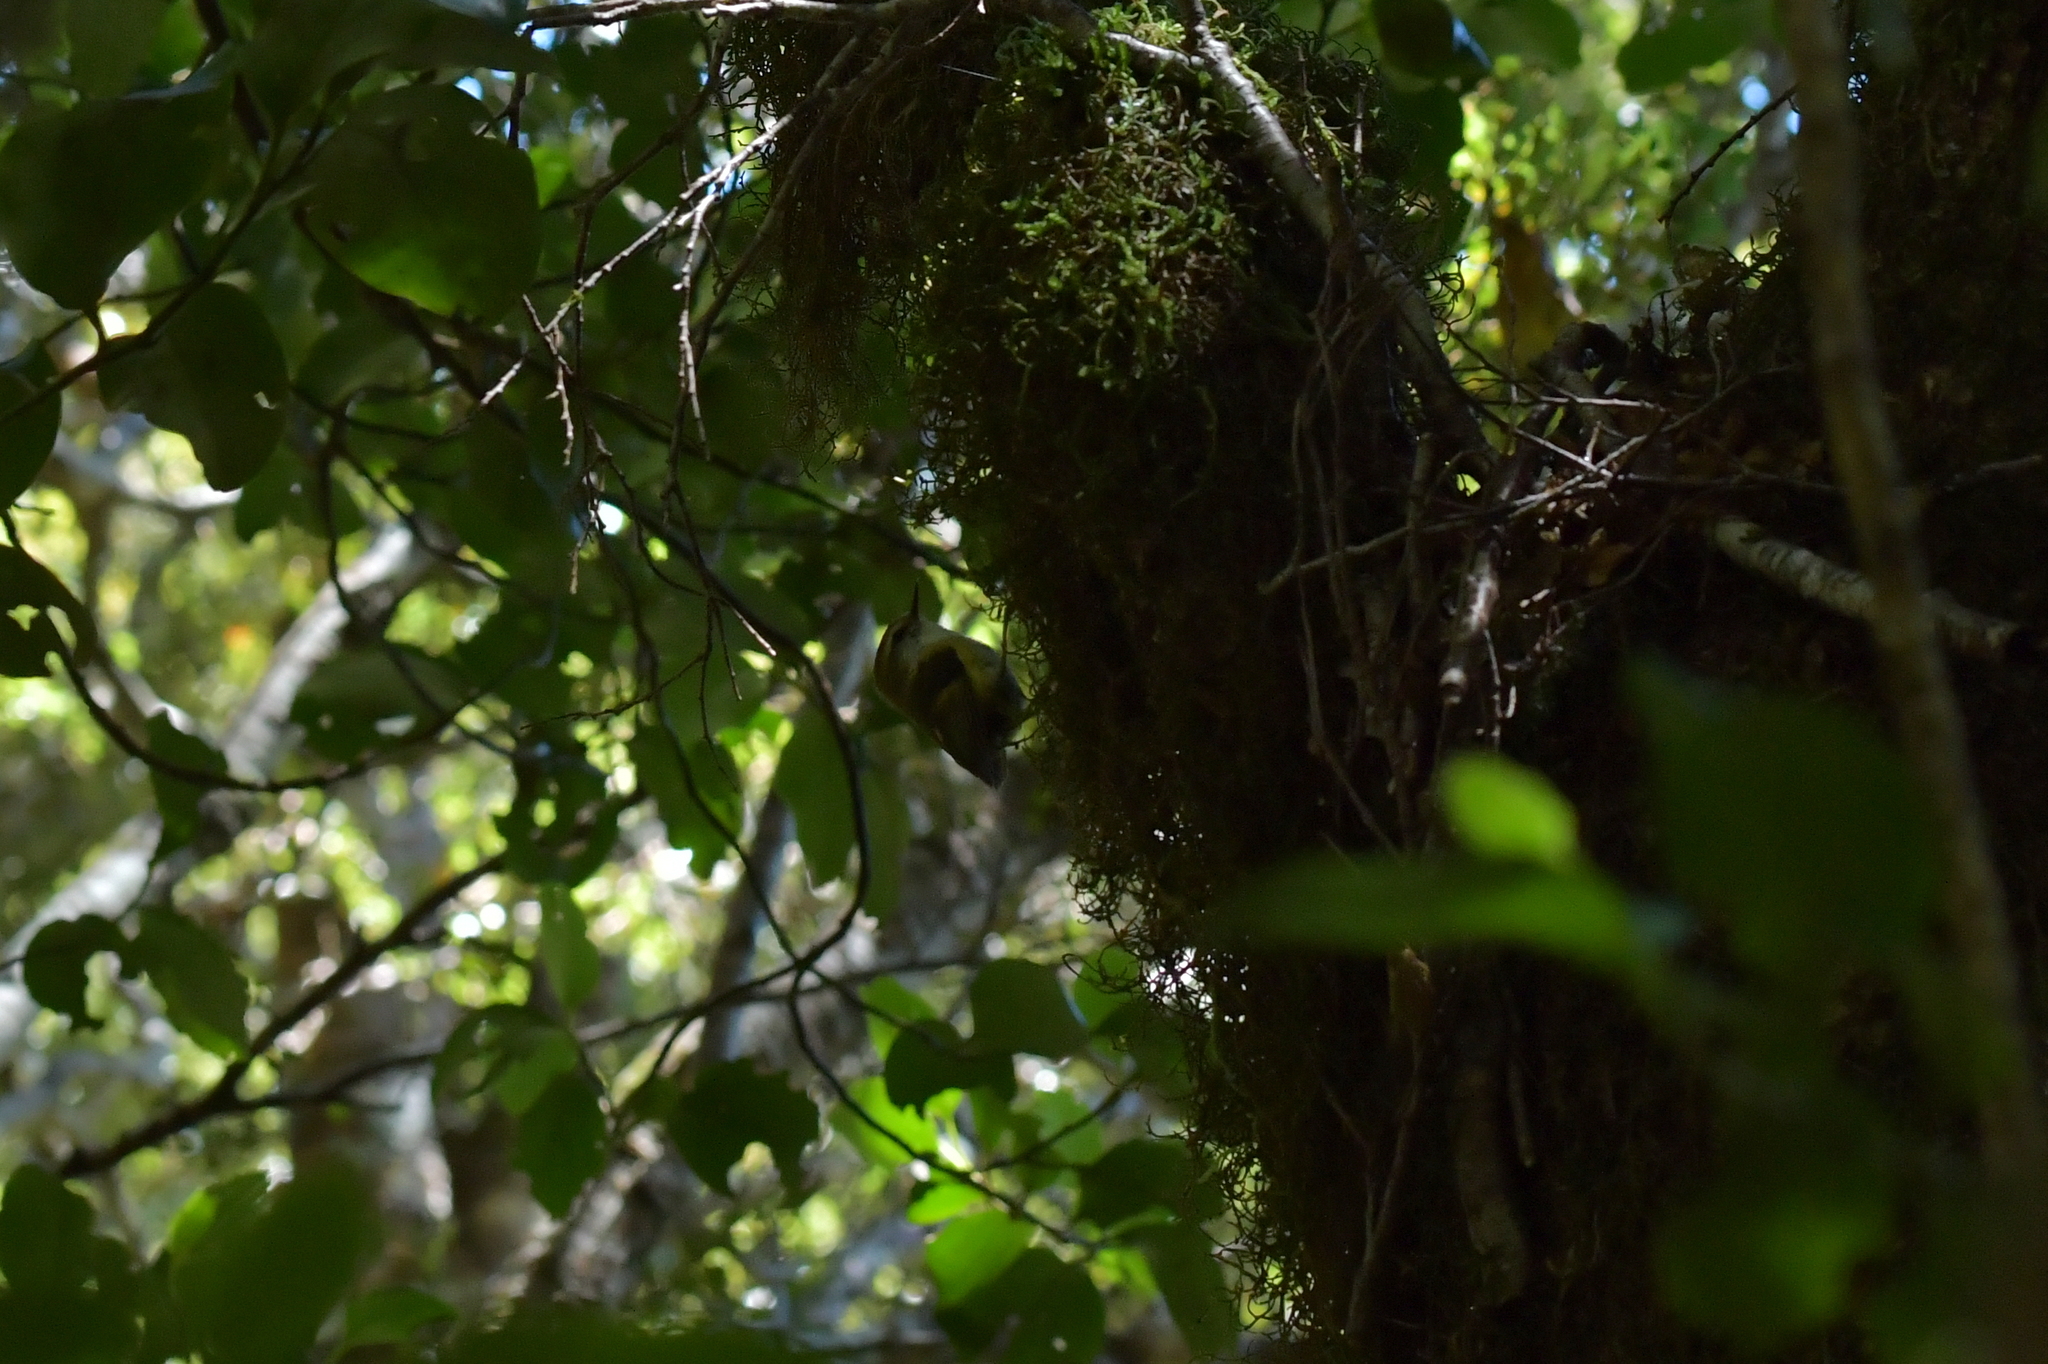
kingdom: Animalia
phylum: Chordata
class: Aves
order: Passeriformes
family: Acanthisittidae
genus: Acanthisitta
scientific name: Acanthisitta chloris
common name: Rifleman
